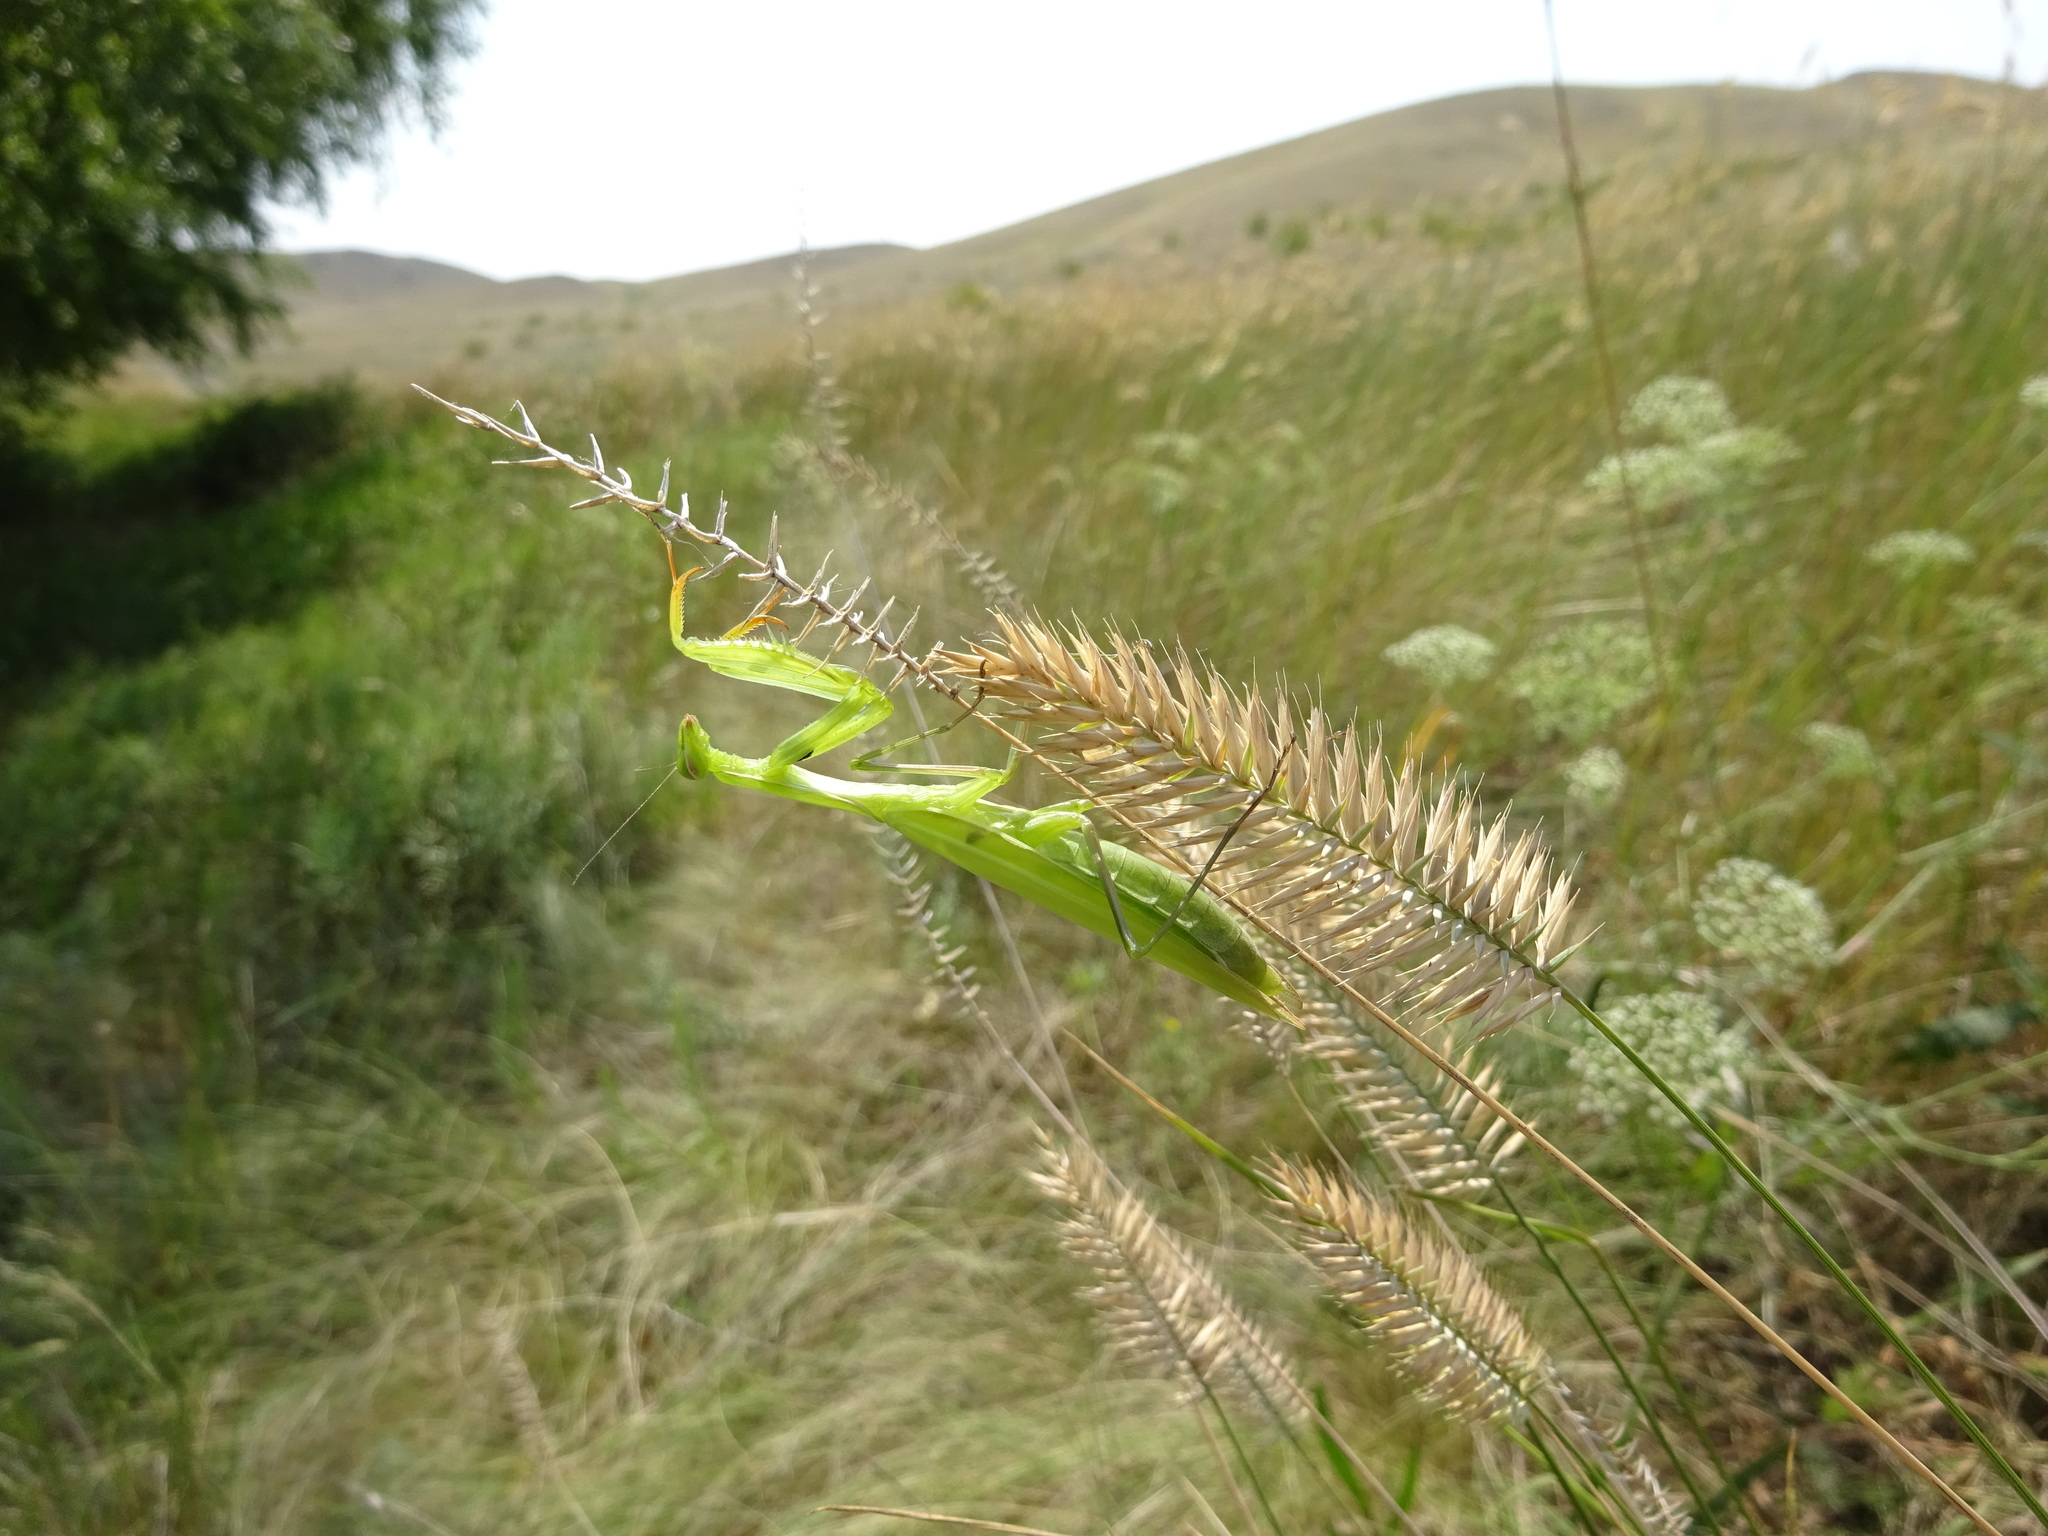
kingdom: Animalia
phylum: Arthropoda
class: Insecta
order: Mantodea
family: Mantidae
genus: Mantis
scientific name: Mantis religiosa
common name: Praying mantis
